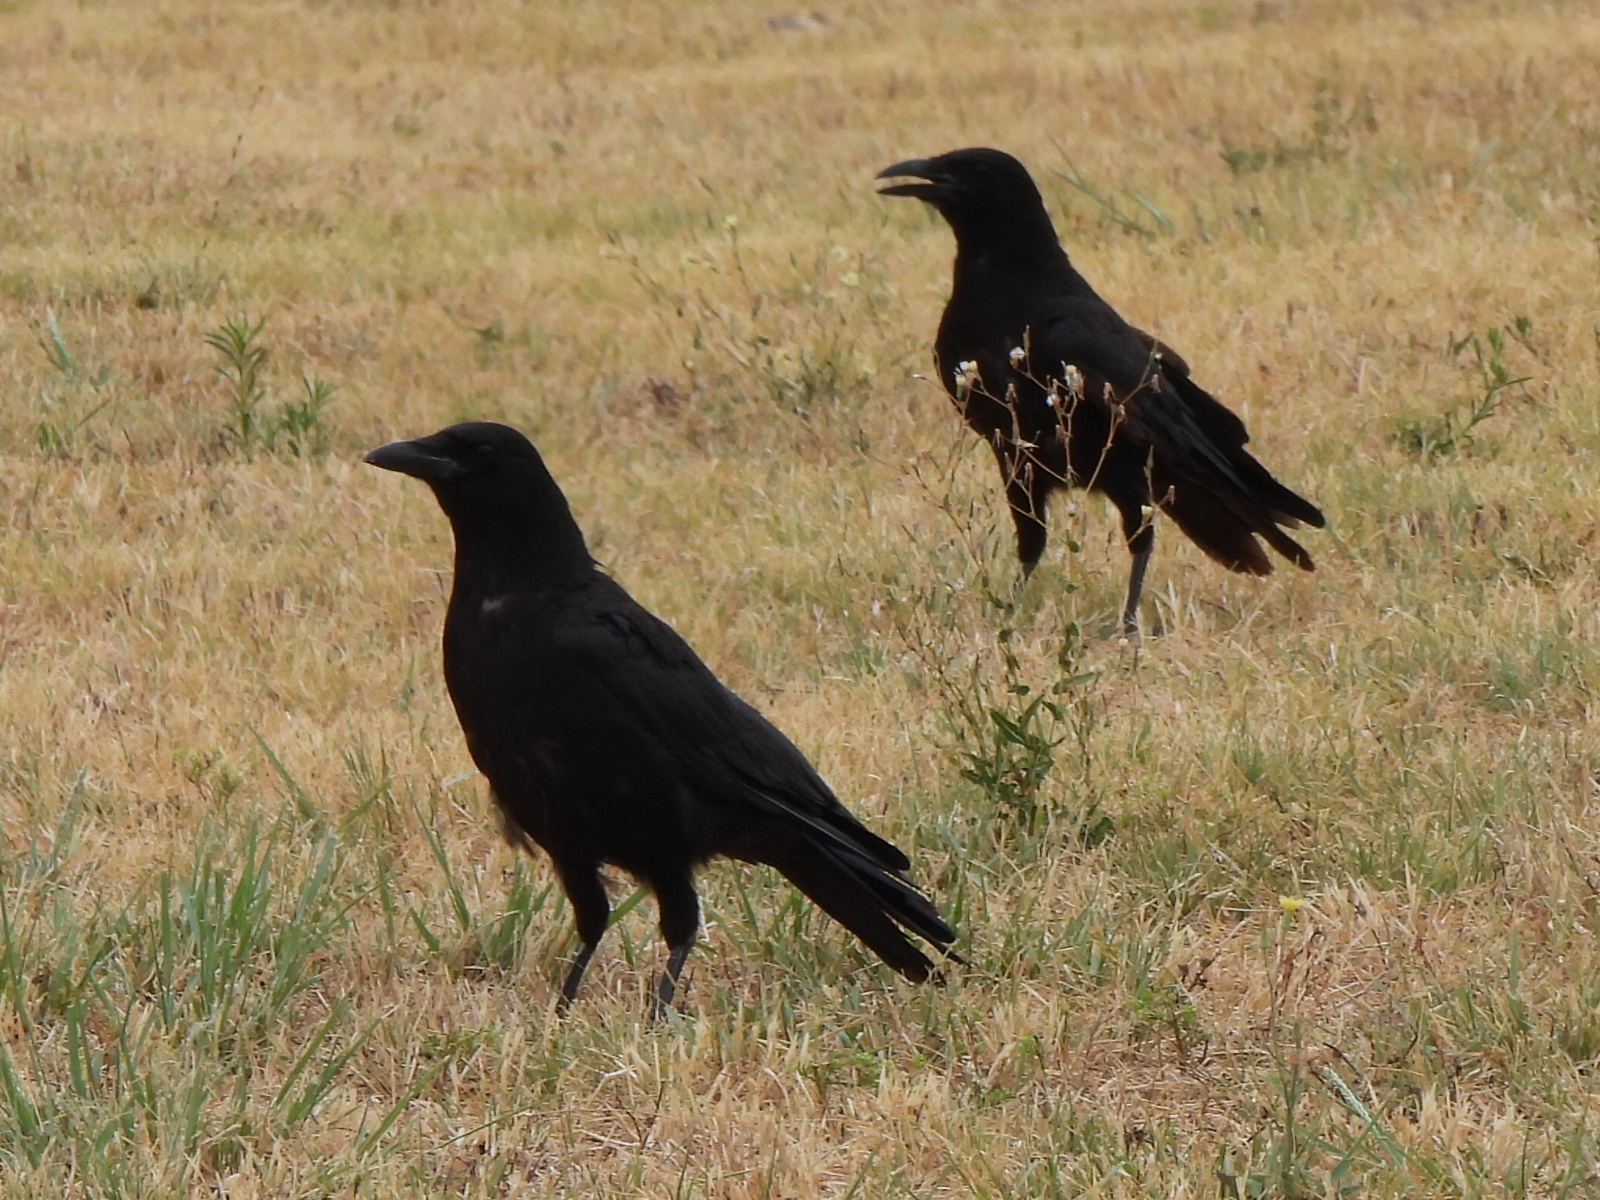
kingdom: Animalia
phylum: Chordata
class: Aves
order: Passeriformes
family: Corvidae
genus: Corvus
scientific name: Corvus brachyrhynchos
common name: American crow
